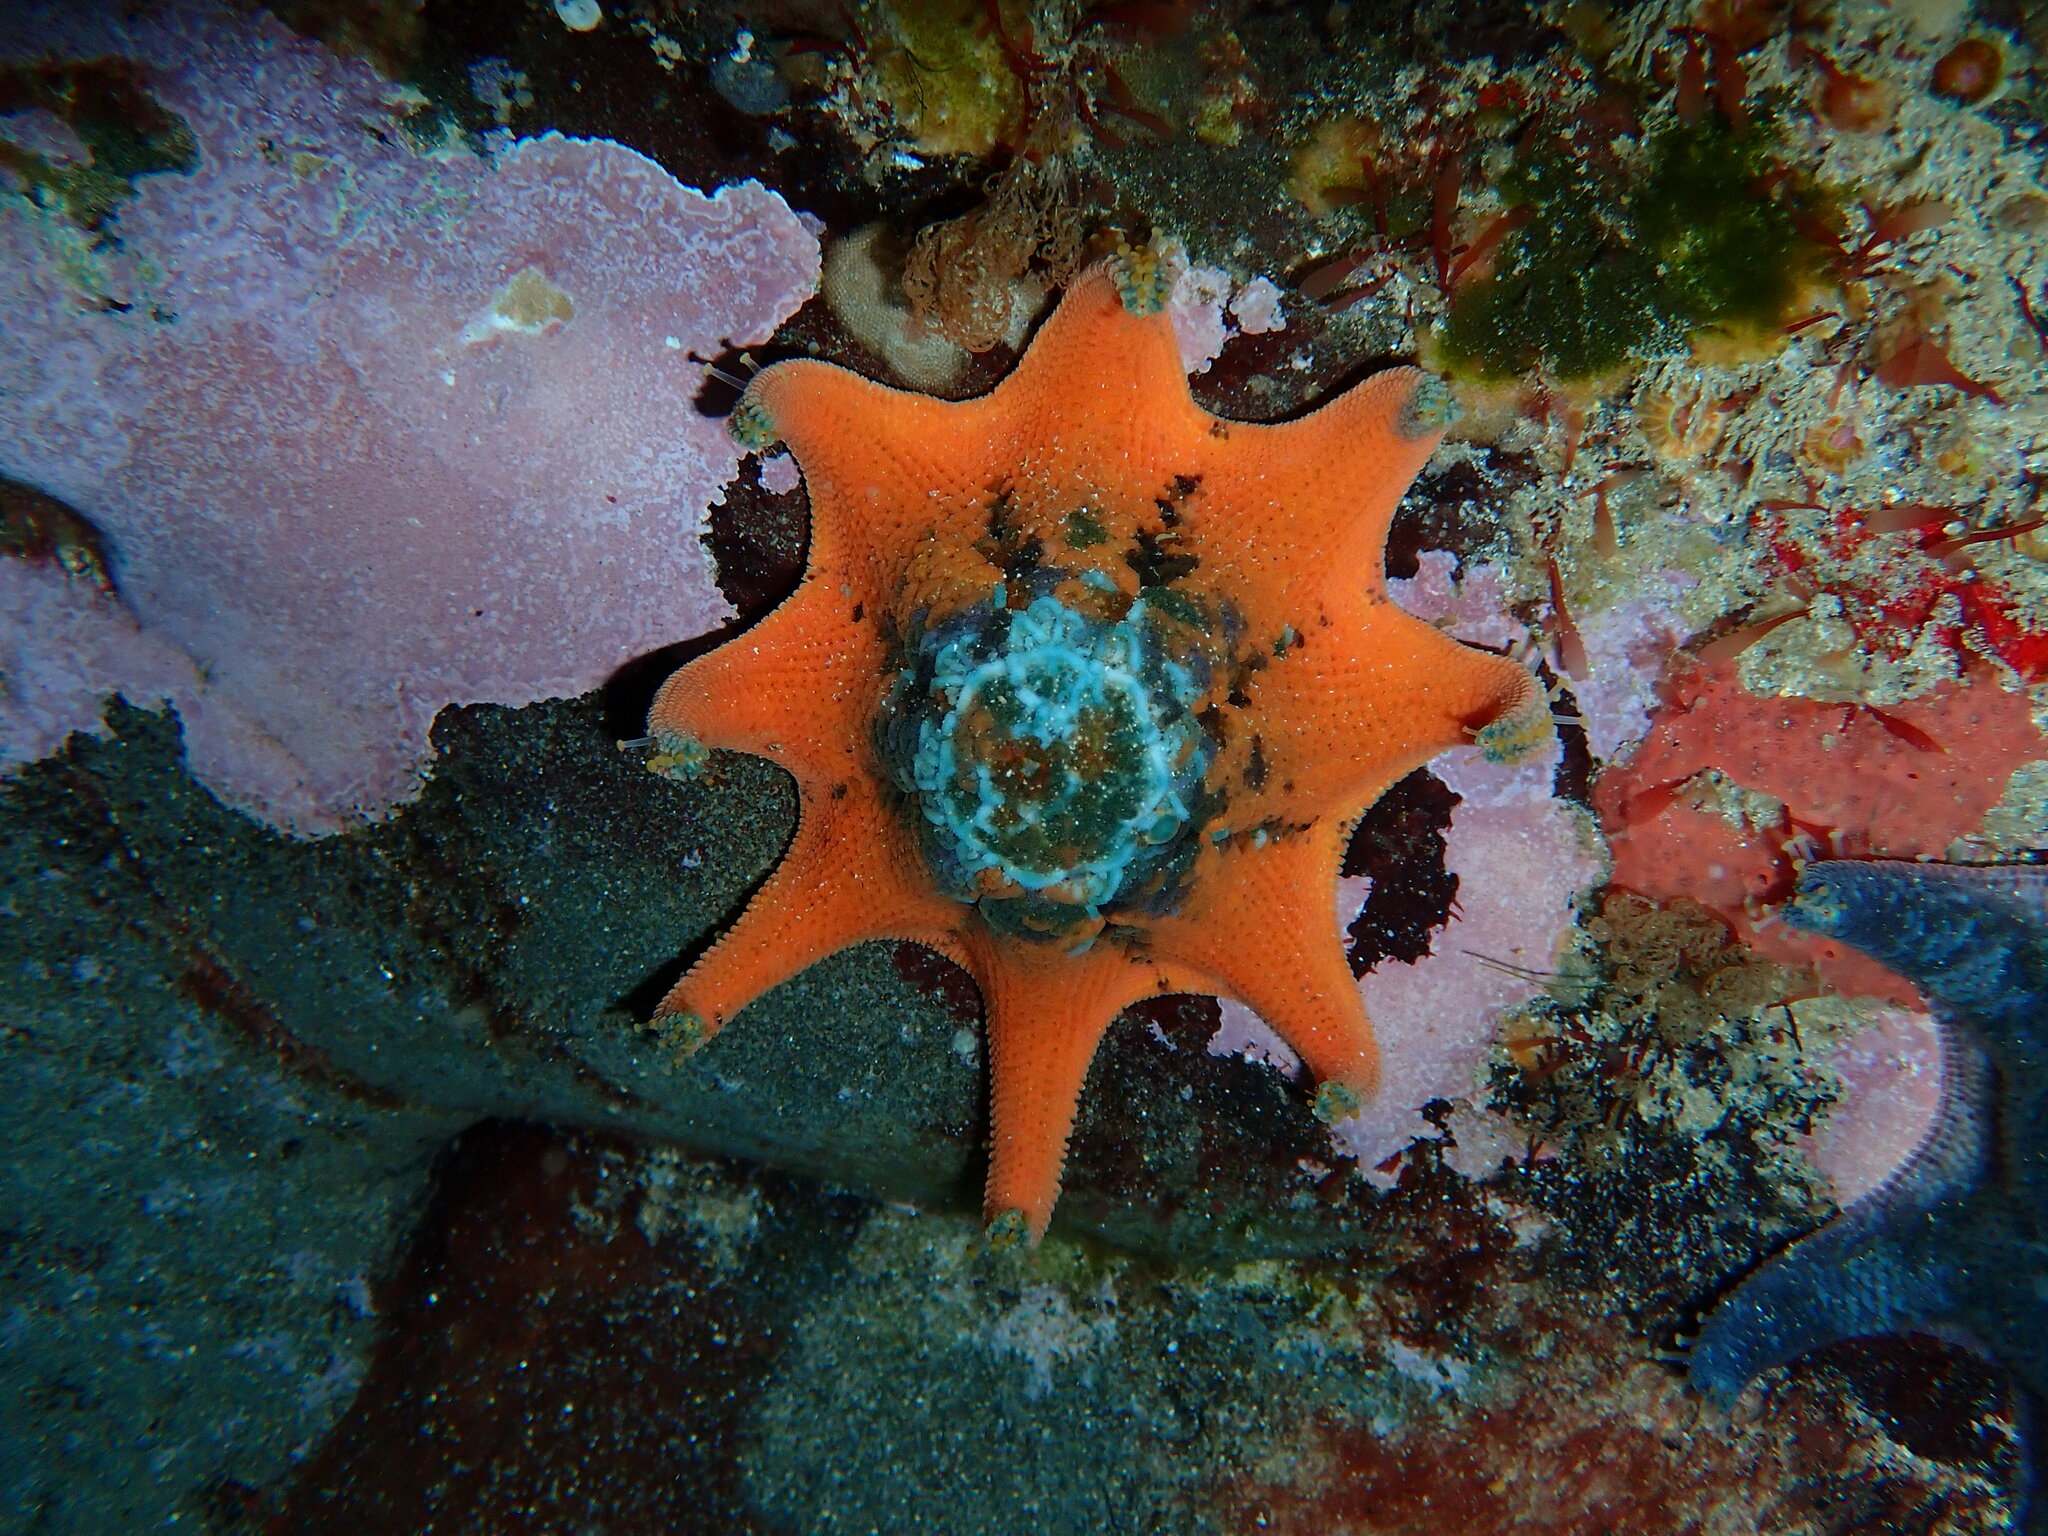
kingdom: Animalia
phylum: Echinodermata
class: Asteroidea
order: Valvatida
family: Asterinidae
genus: Meridiastra
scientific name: Meridiastra calcar
